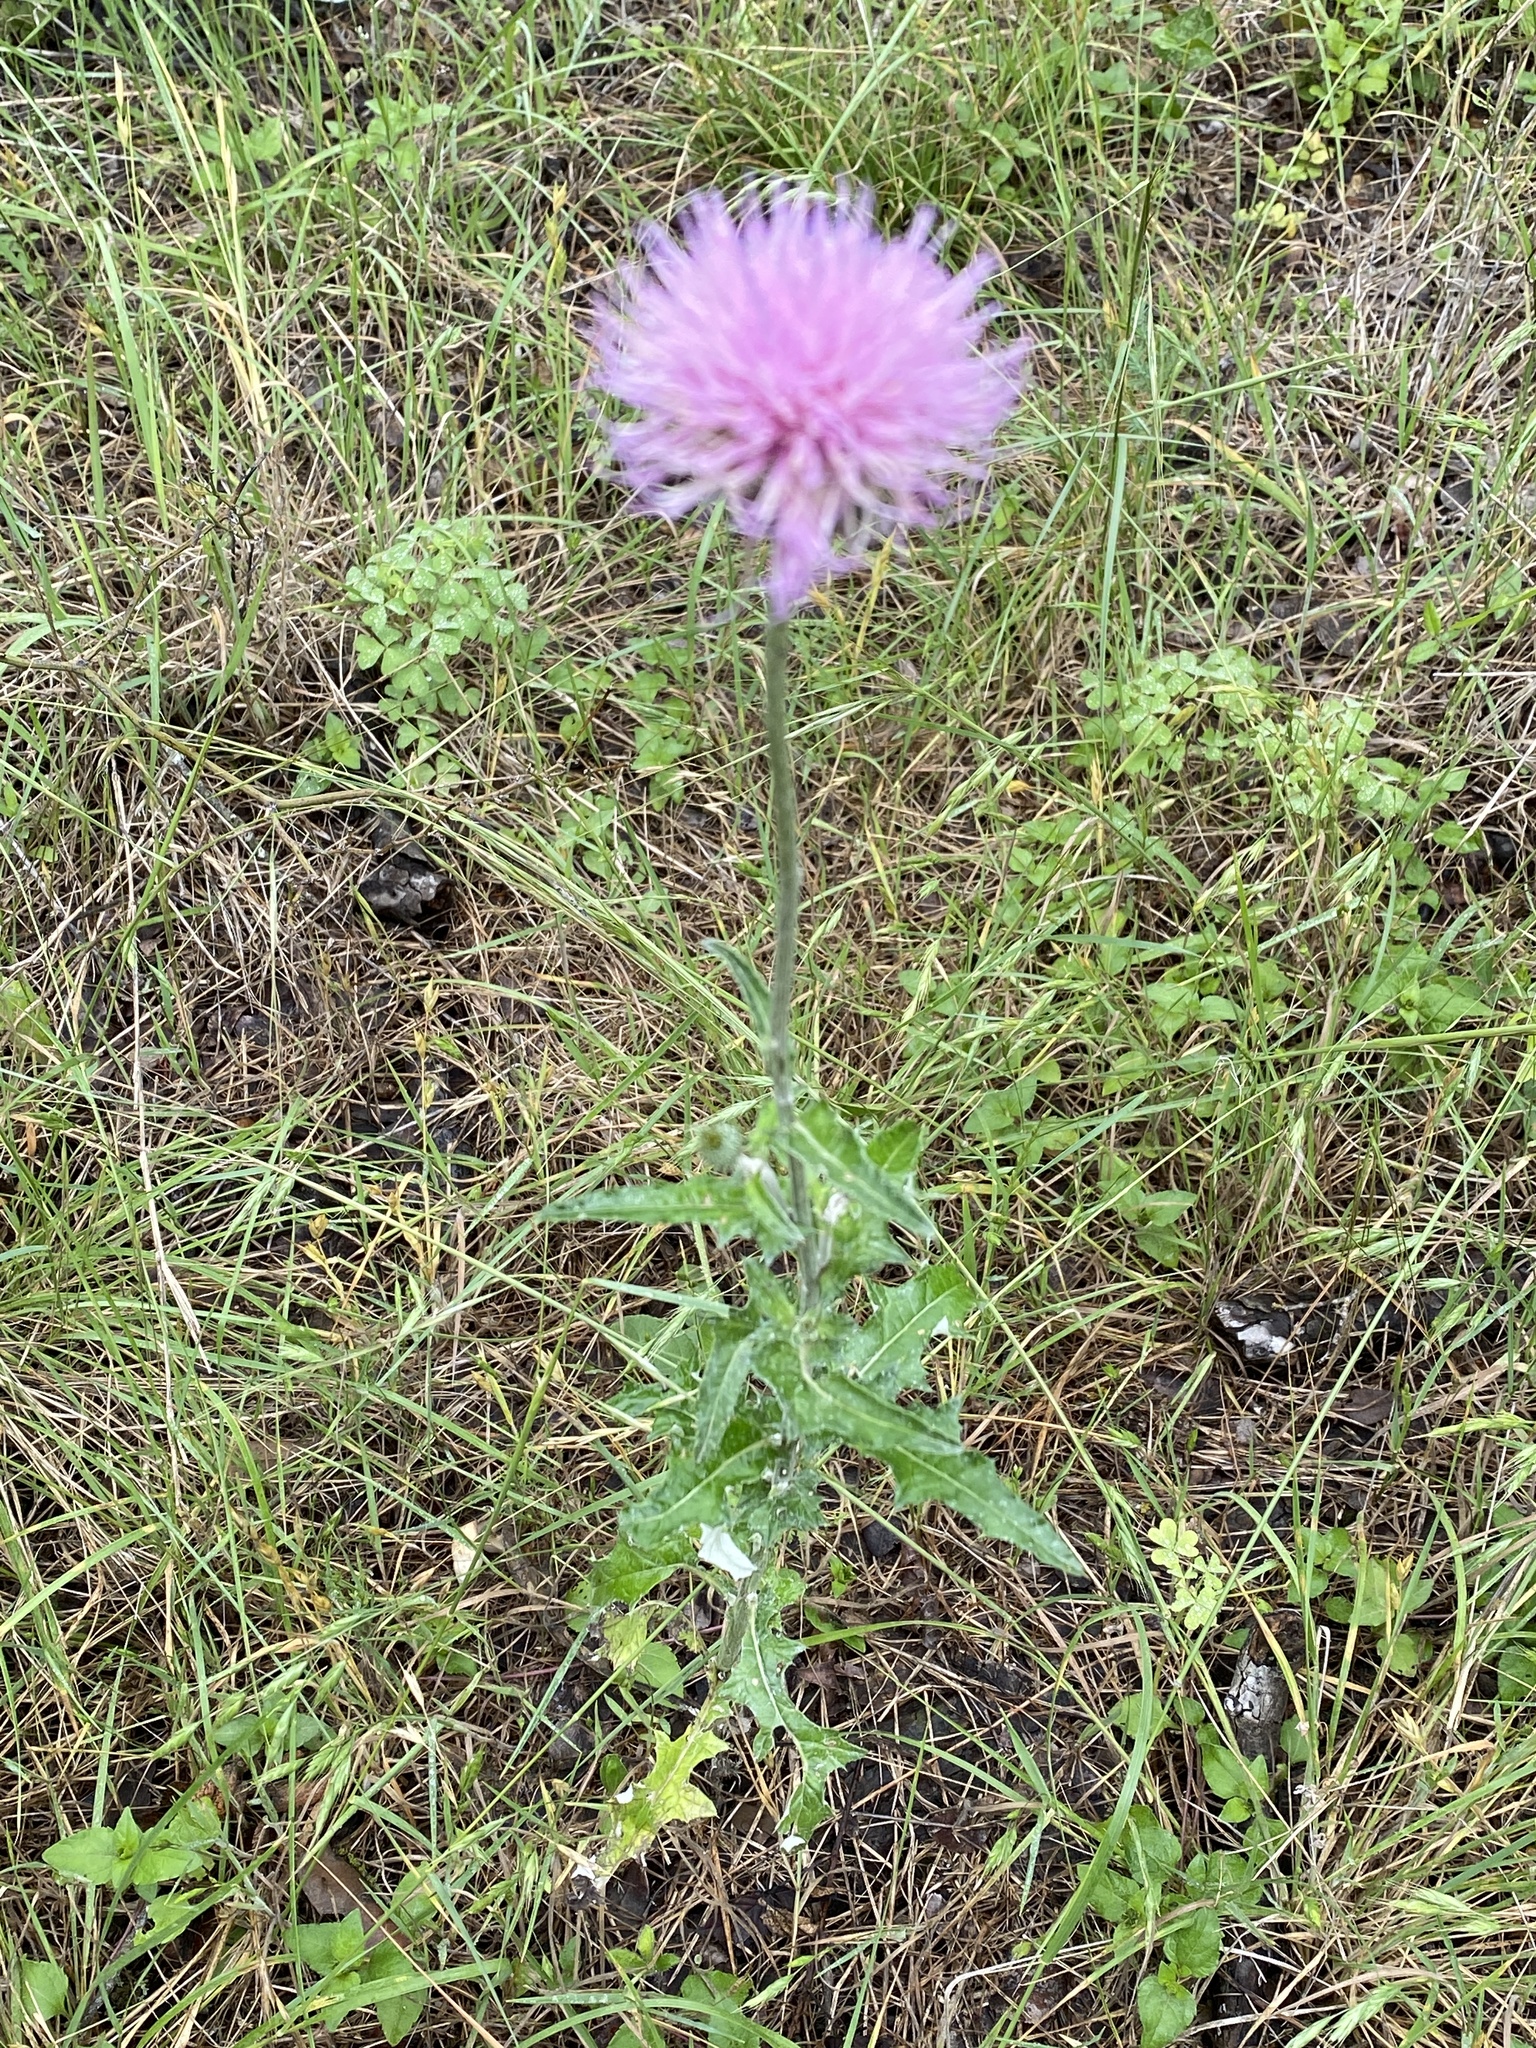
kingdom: Plantae
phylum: Tracheophyta
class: Magnoliopsida
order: Asterales
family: Asteraceae
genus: Cirsium
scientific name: Cirsium texanum
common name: Texas purple thistle
